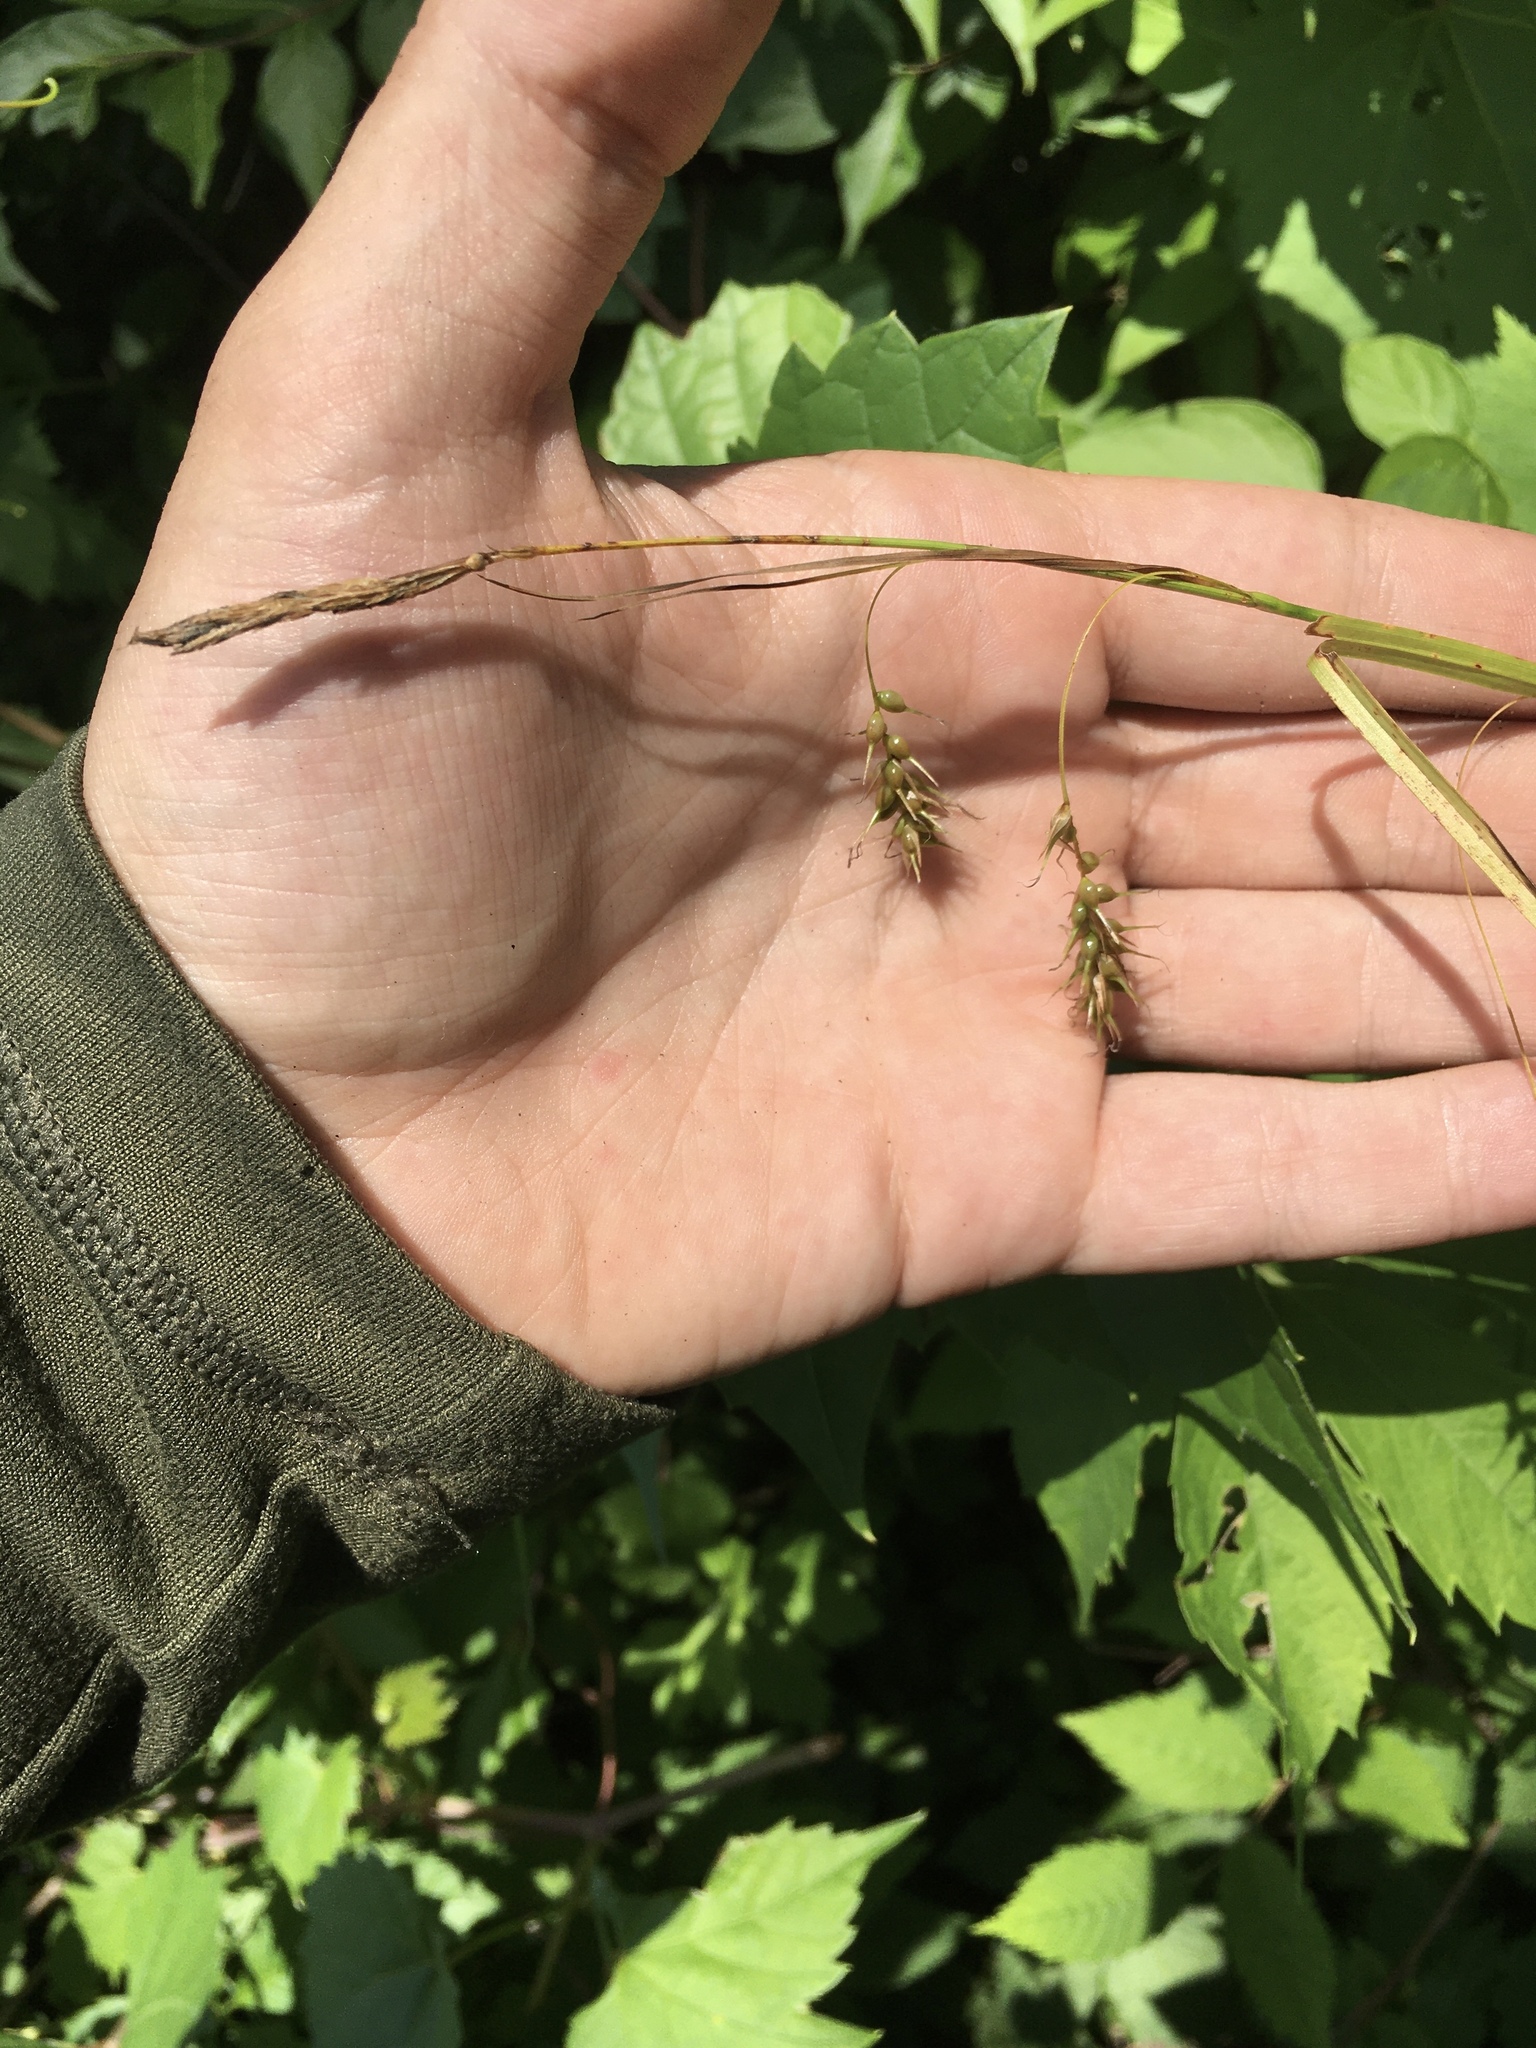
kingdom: Plantae
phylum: Tracheophyta
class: Liliopsida
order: Poales
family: Cyperaceae
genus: Carex
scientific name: Carex sprengelii
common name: Long-beaked sedge
